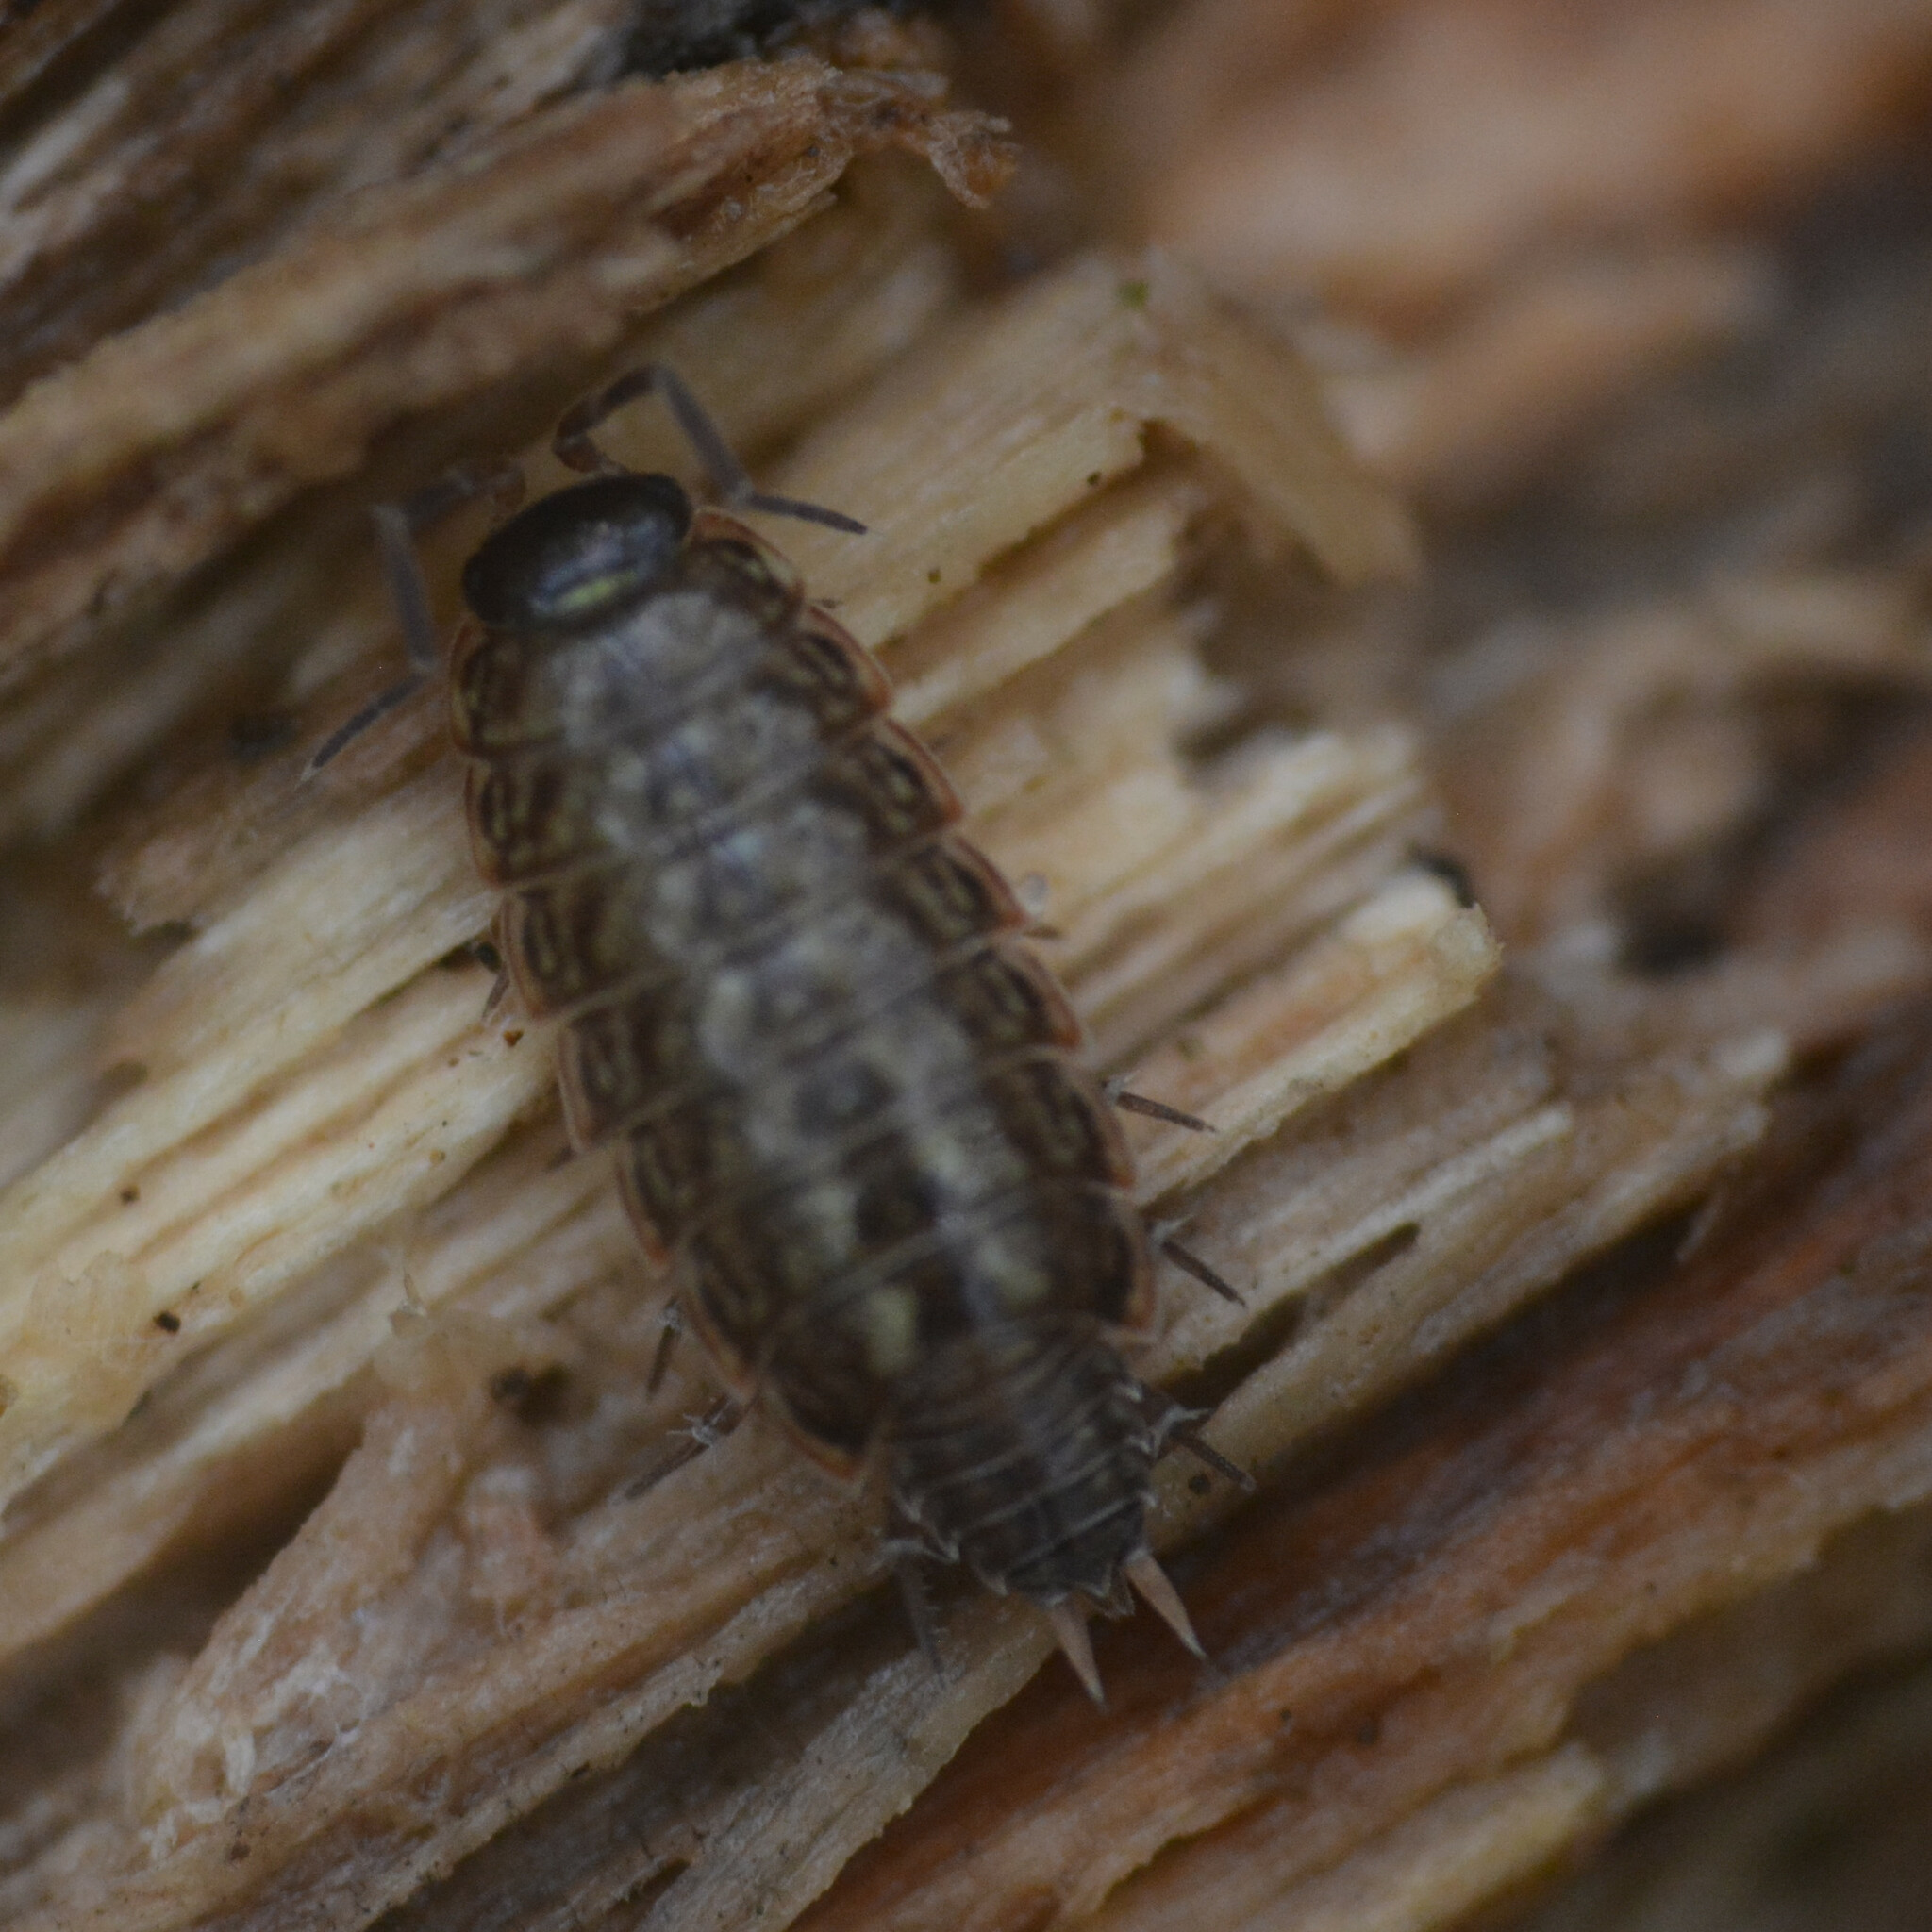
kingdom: Animalia
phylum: Arthropoda
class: Malacostraca
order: Isopoda
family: Philosciidae
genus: Philoscia
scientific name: Philoscia muscorum
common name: Common striped woodlouse
